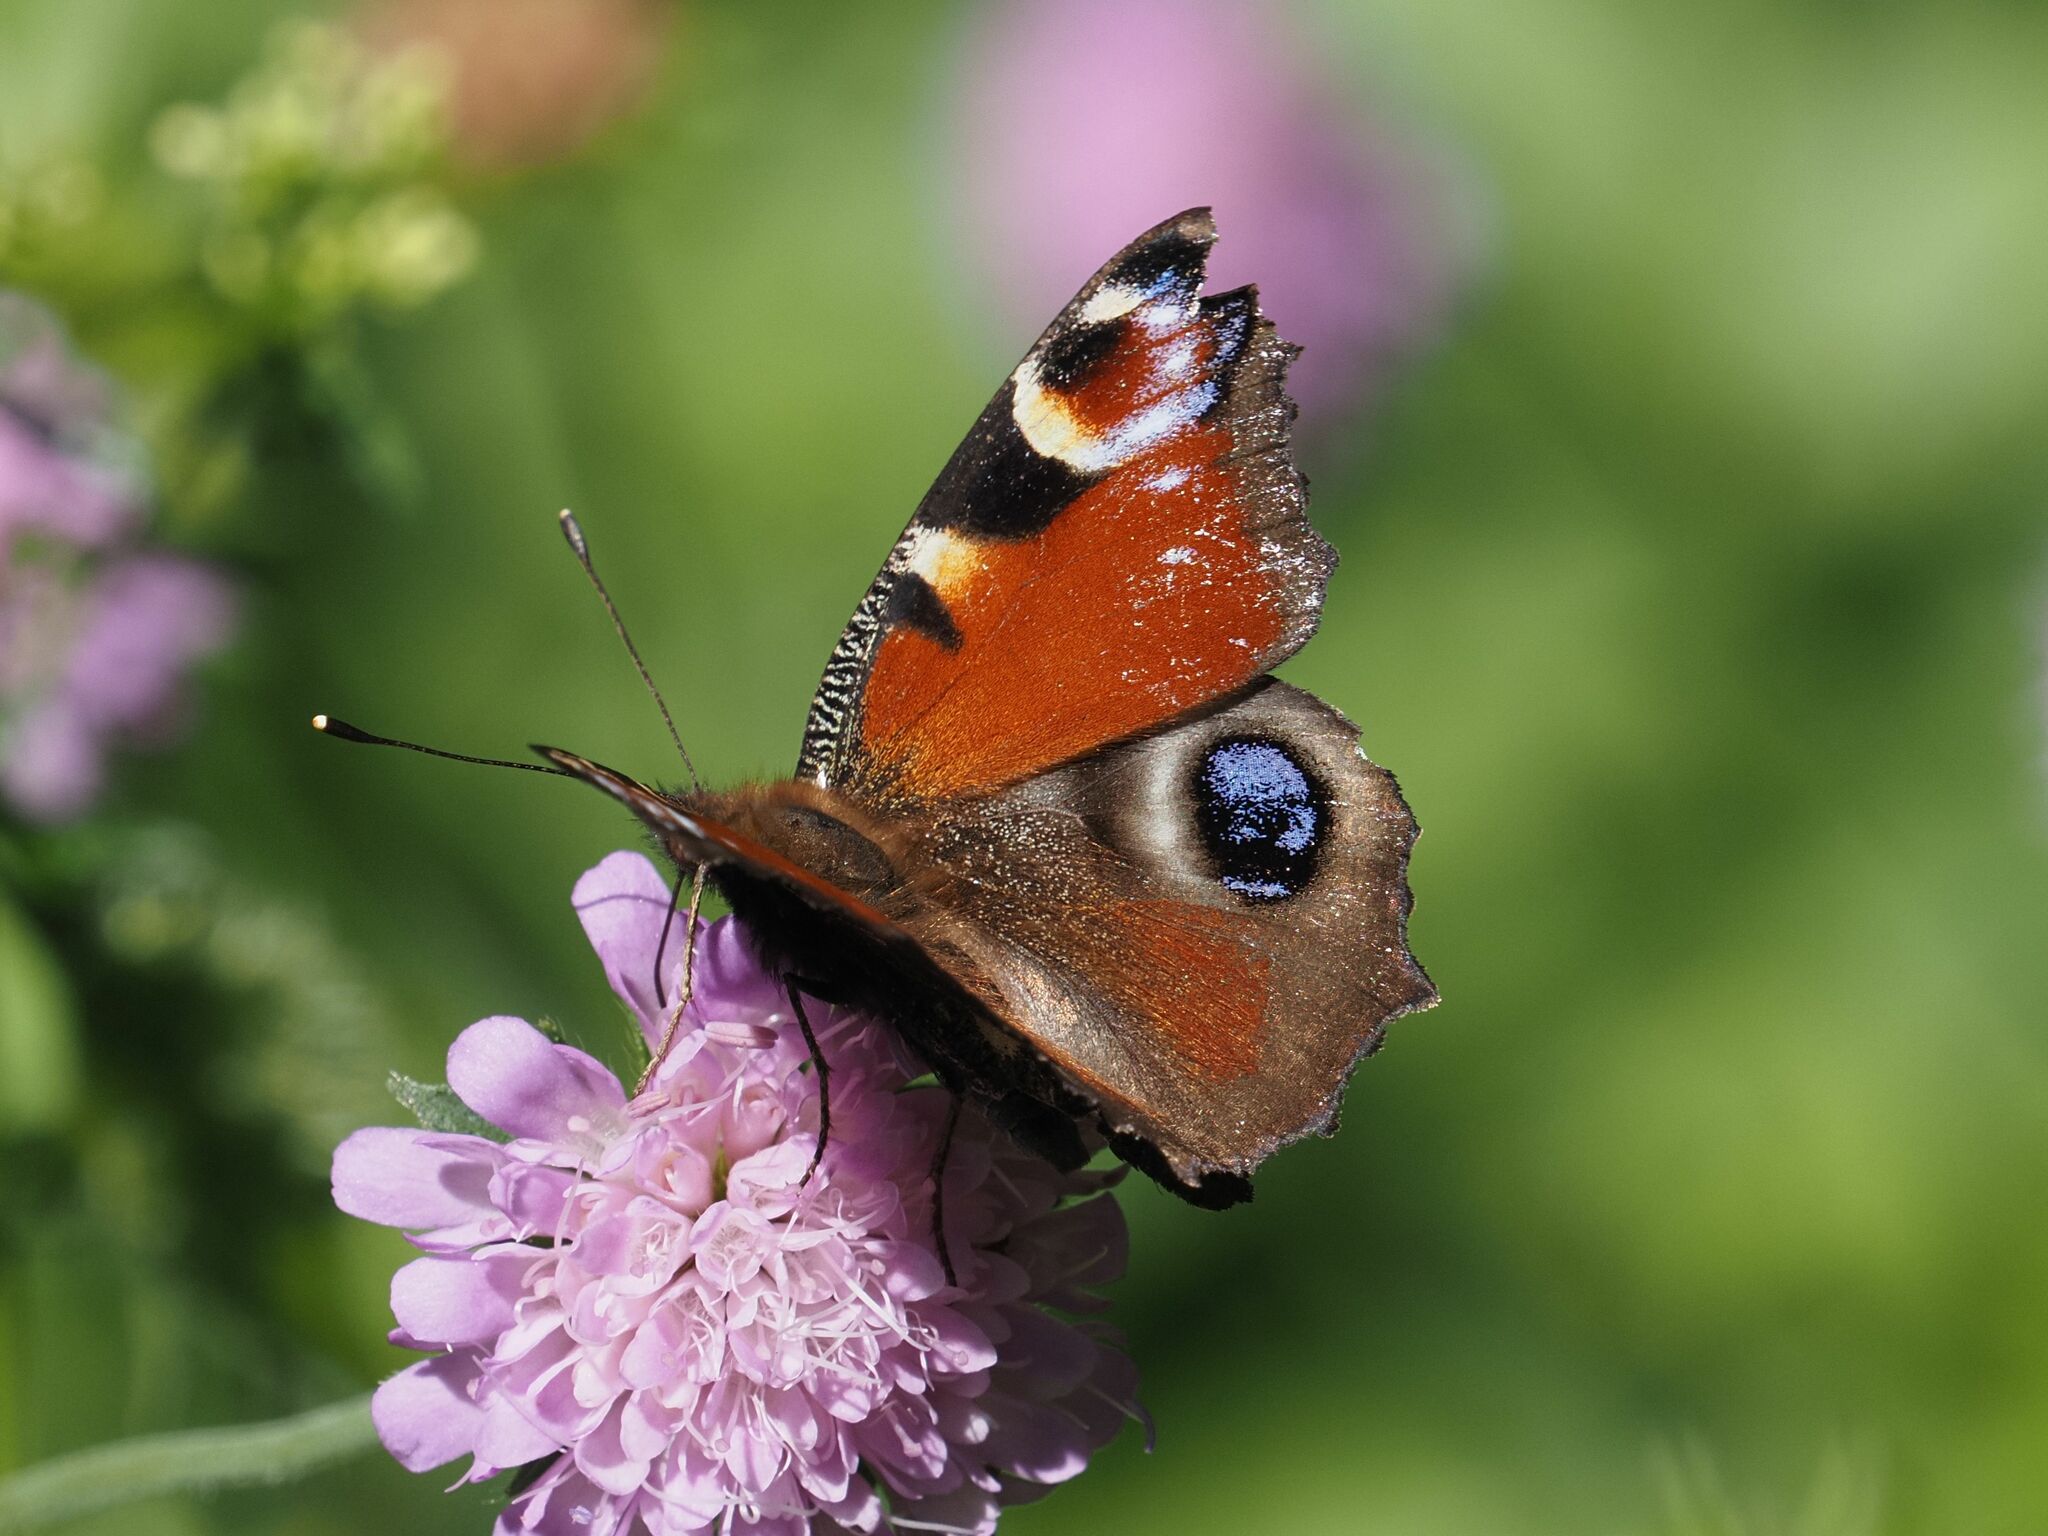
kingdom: Animalia
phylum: Arthropoda
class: Insecta
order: Lepidoptera
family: Nymphalidae
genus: Aglais
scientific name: Aglais io
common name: Peacock
